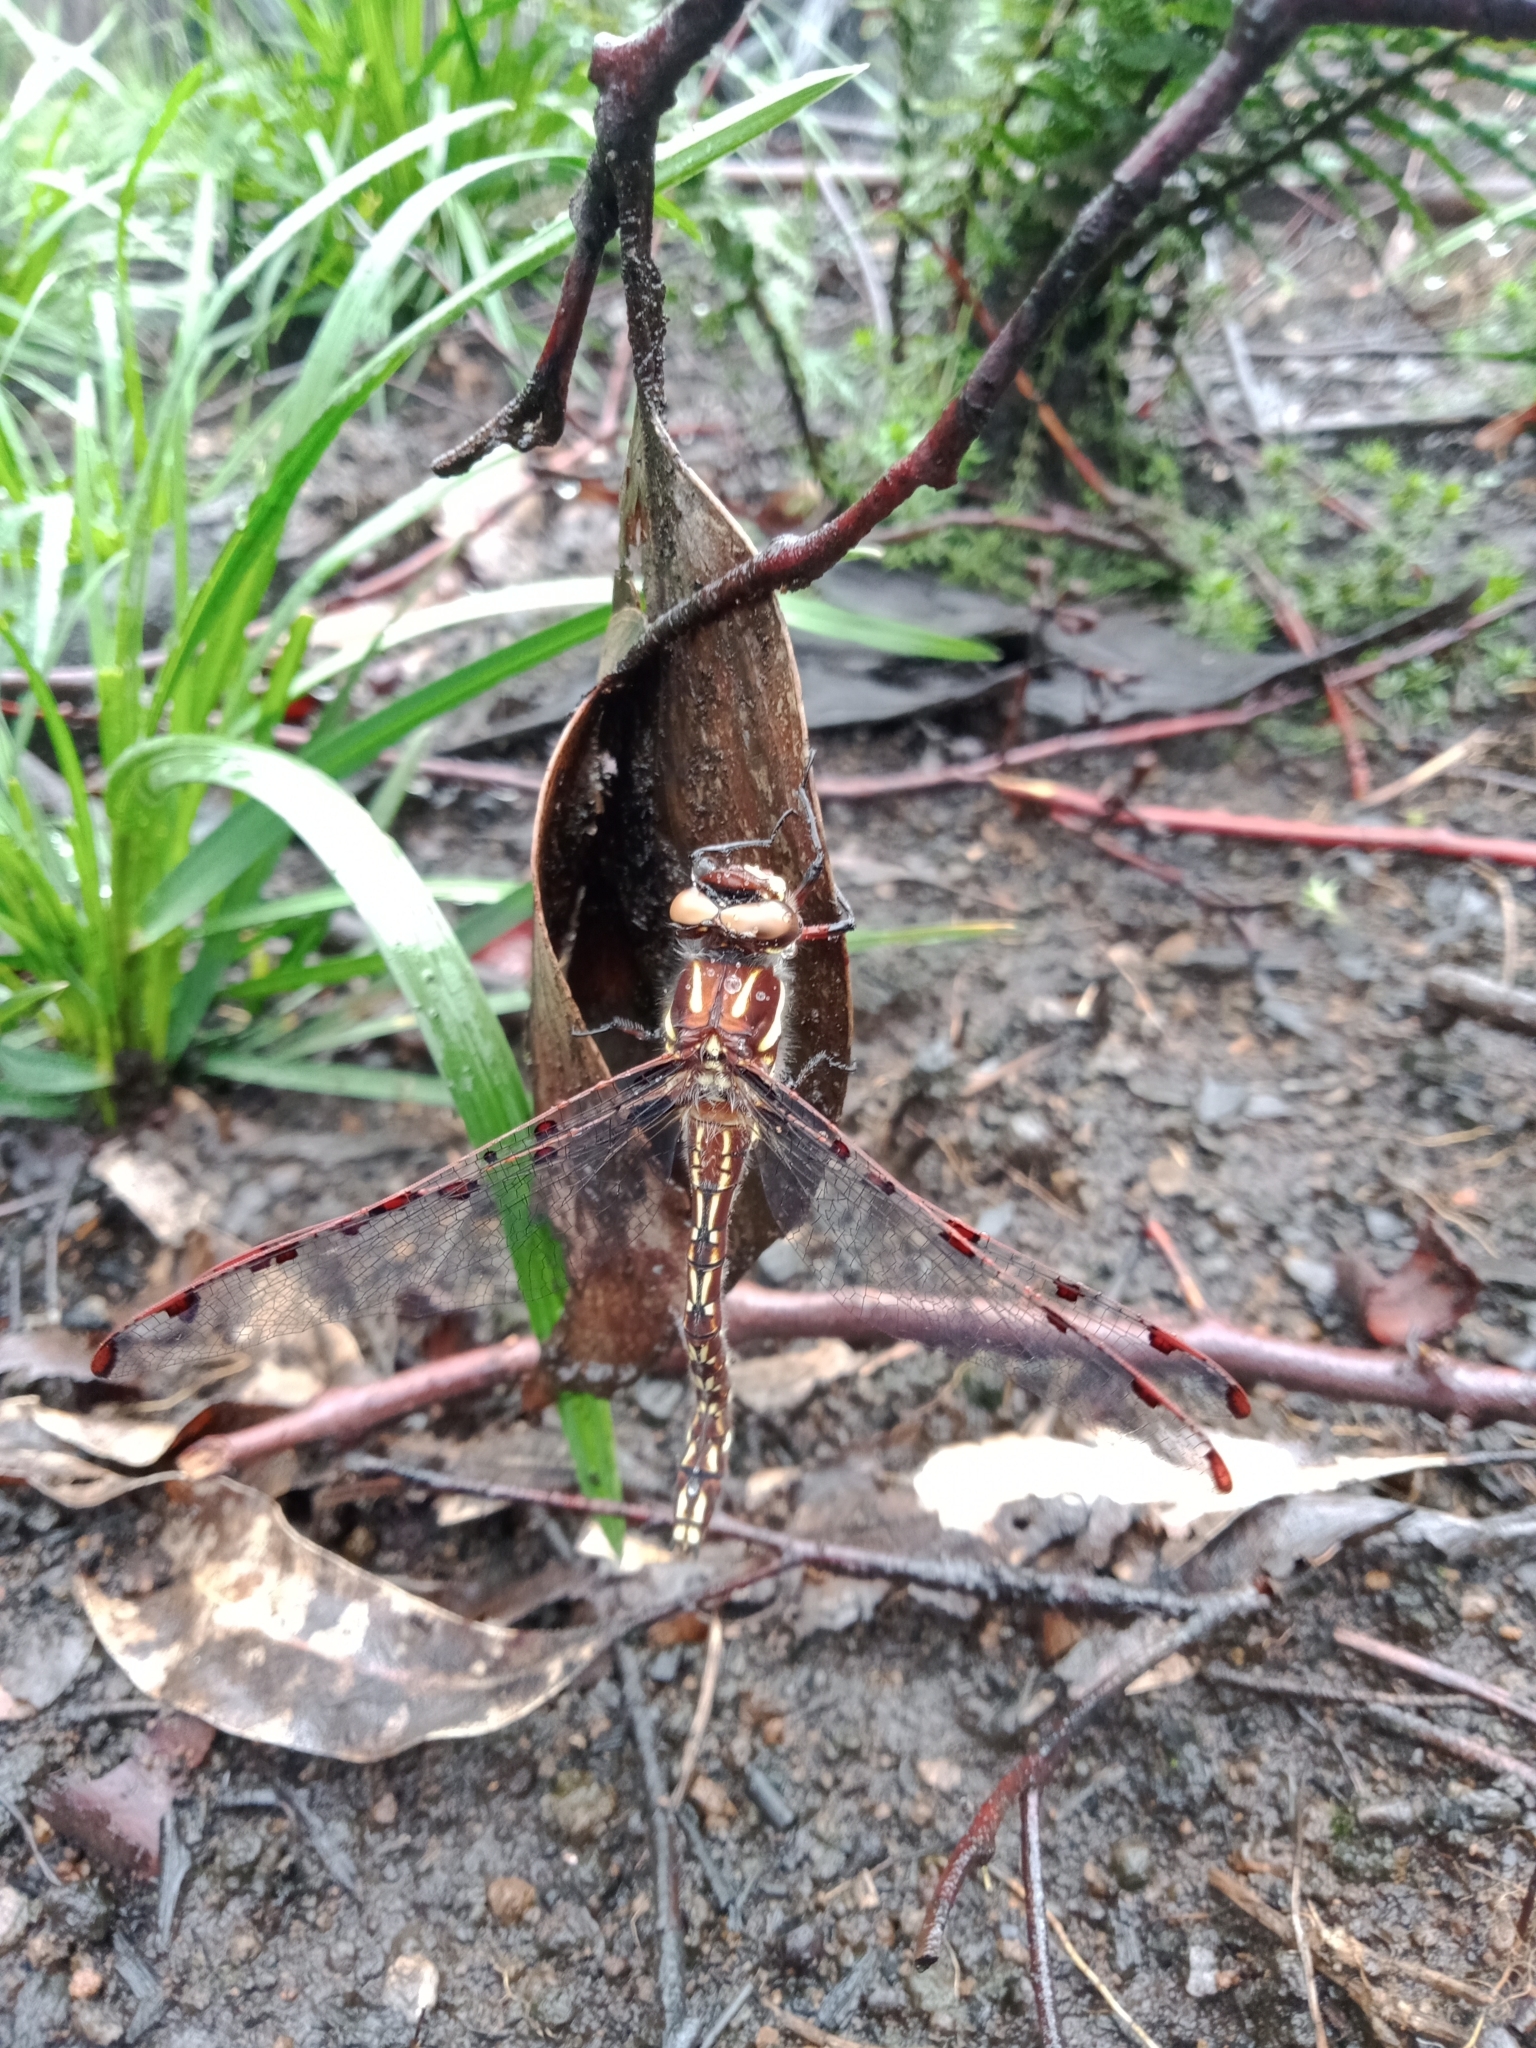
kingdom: Animalia
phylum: Arthropoda
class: Insecta
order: Odonata
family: Austropetaliidae
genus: Austropetalia
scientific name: Austropetalia tonyana
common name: Alpine redspot
